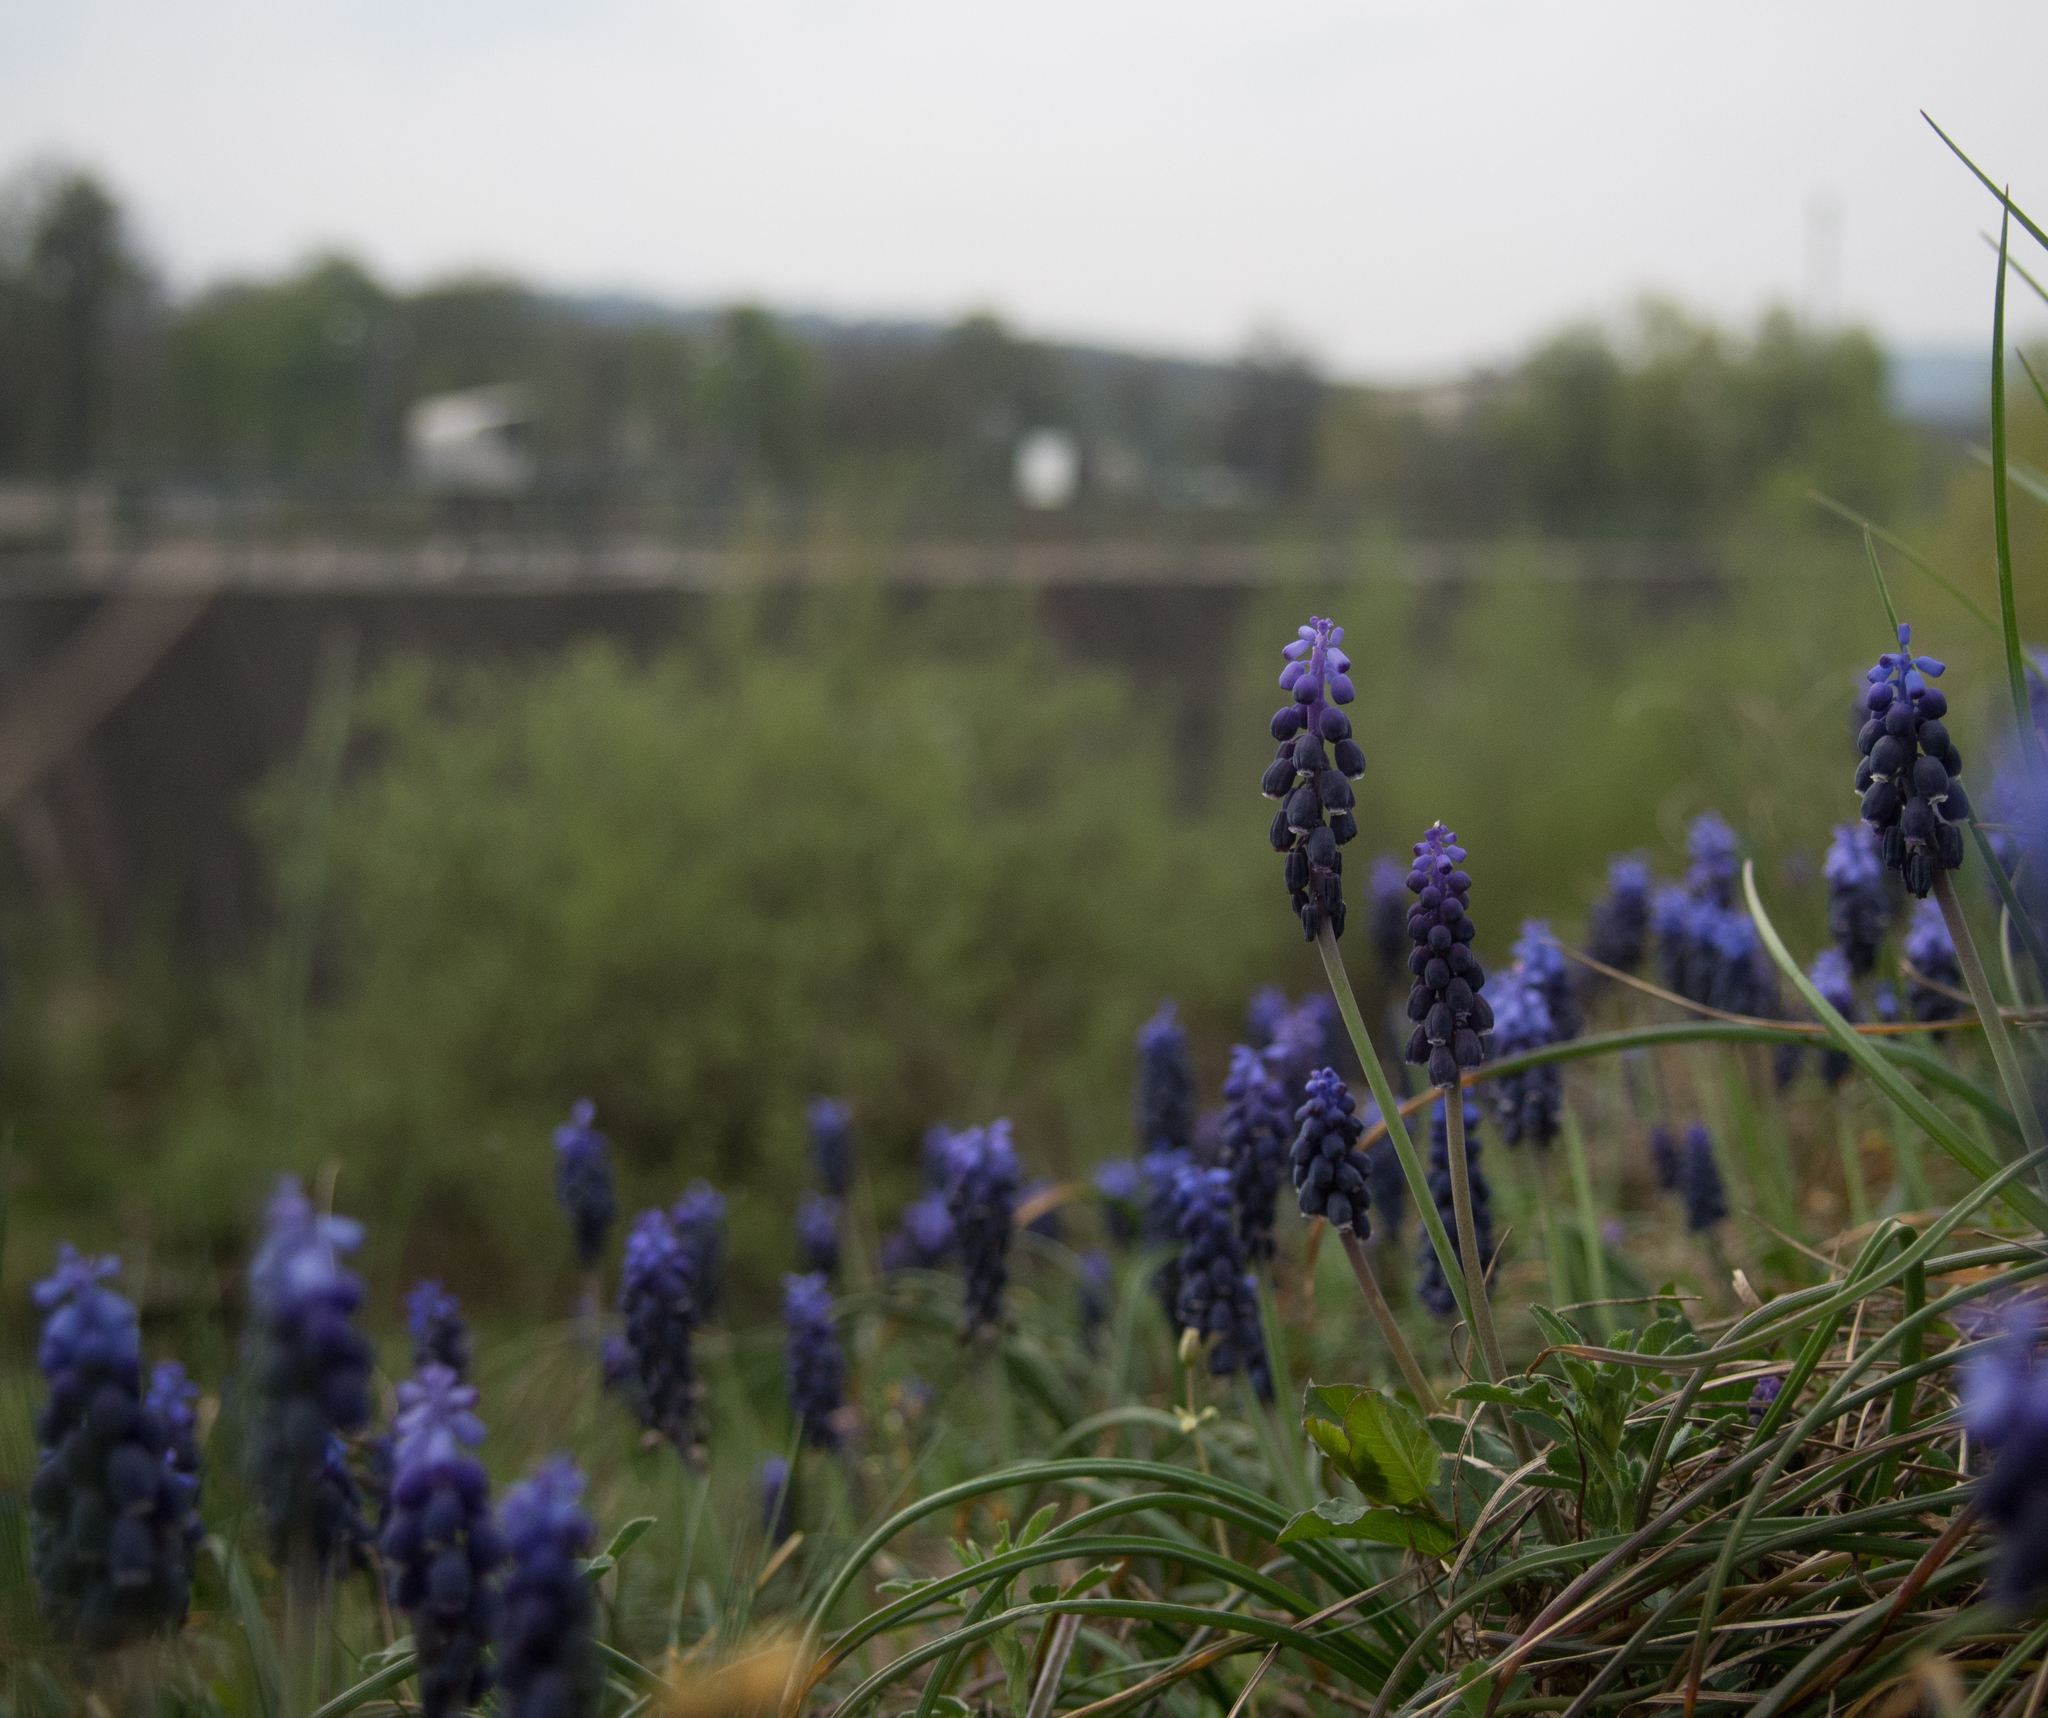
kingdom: Plantae
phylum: Tracheophyta
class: Liliopsida
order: Asparagales
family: Asparagaceae
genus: Muscari
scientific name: Muscari neglectum
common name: Grape-hyacinth
